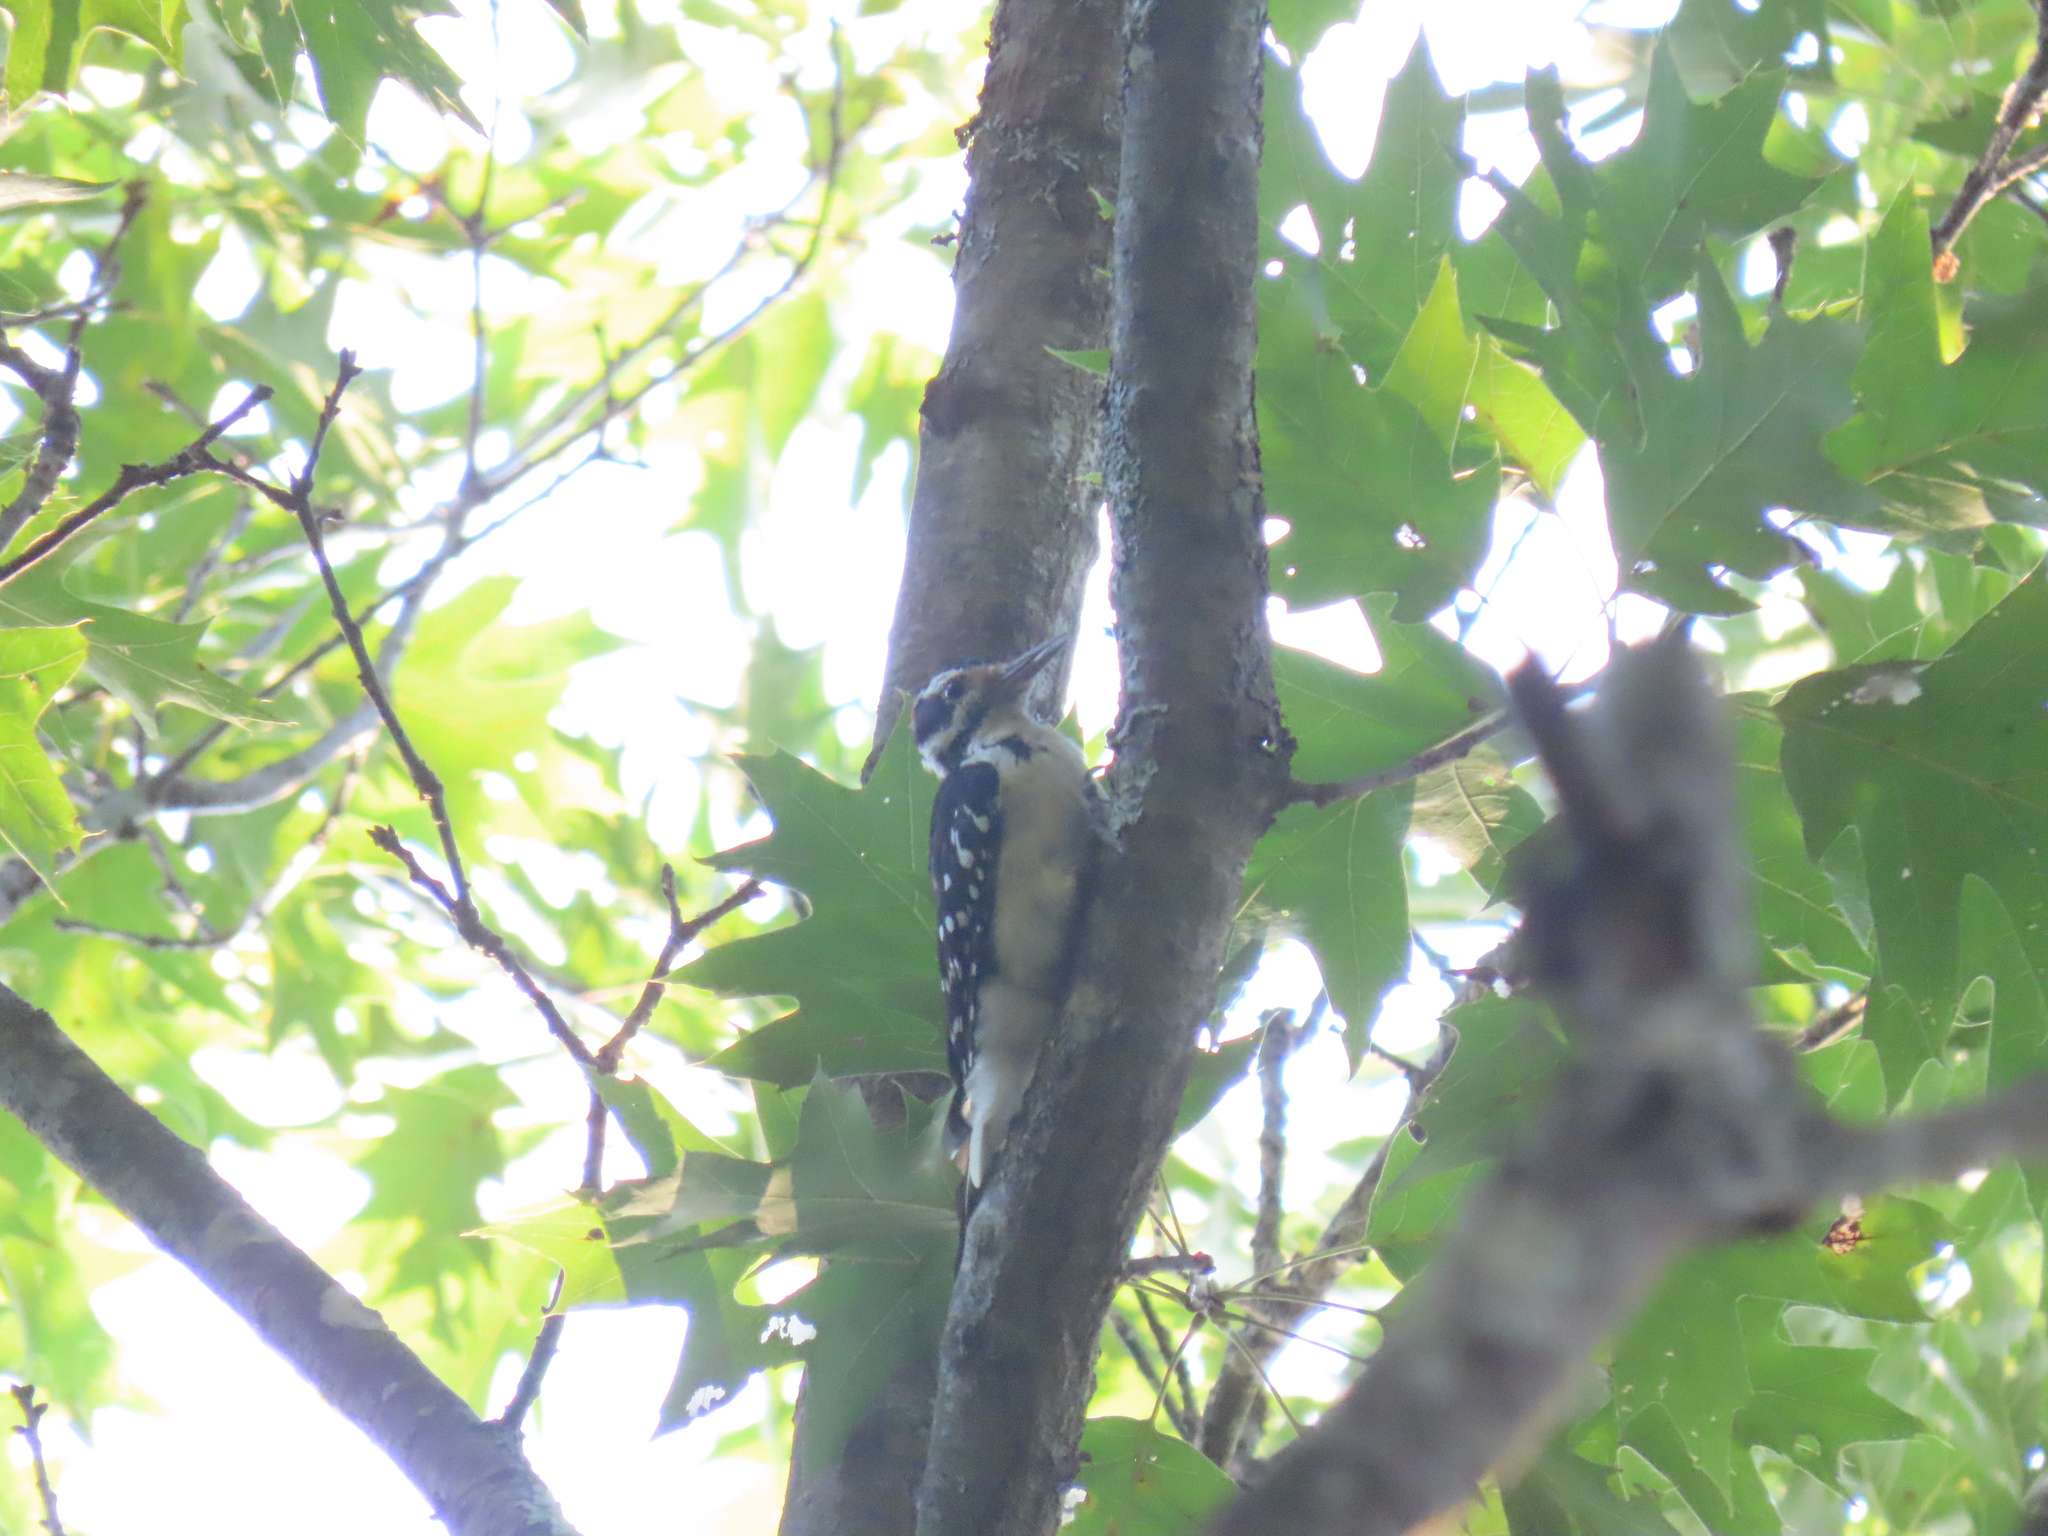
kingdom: Animalia
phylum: Chordata
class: Aves
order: Piciformes
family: Picidae
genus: Leuconotopicus
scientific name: Leuconotopicus villosus
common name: Hairy woodpecker
